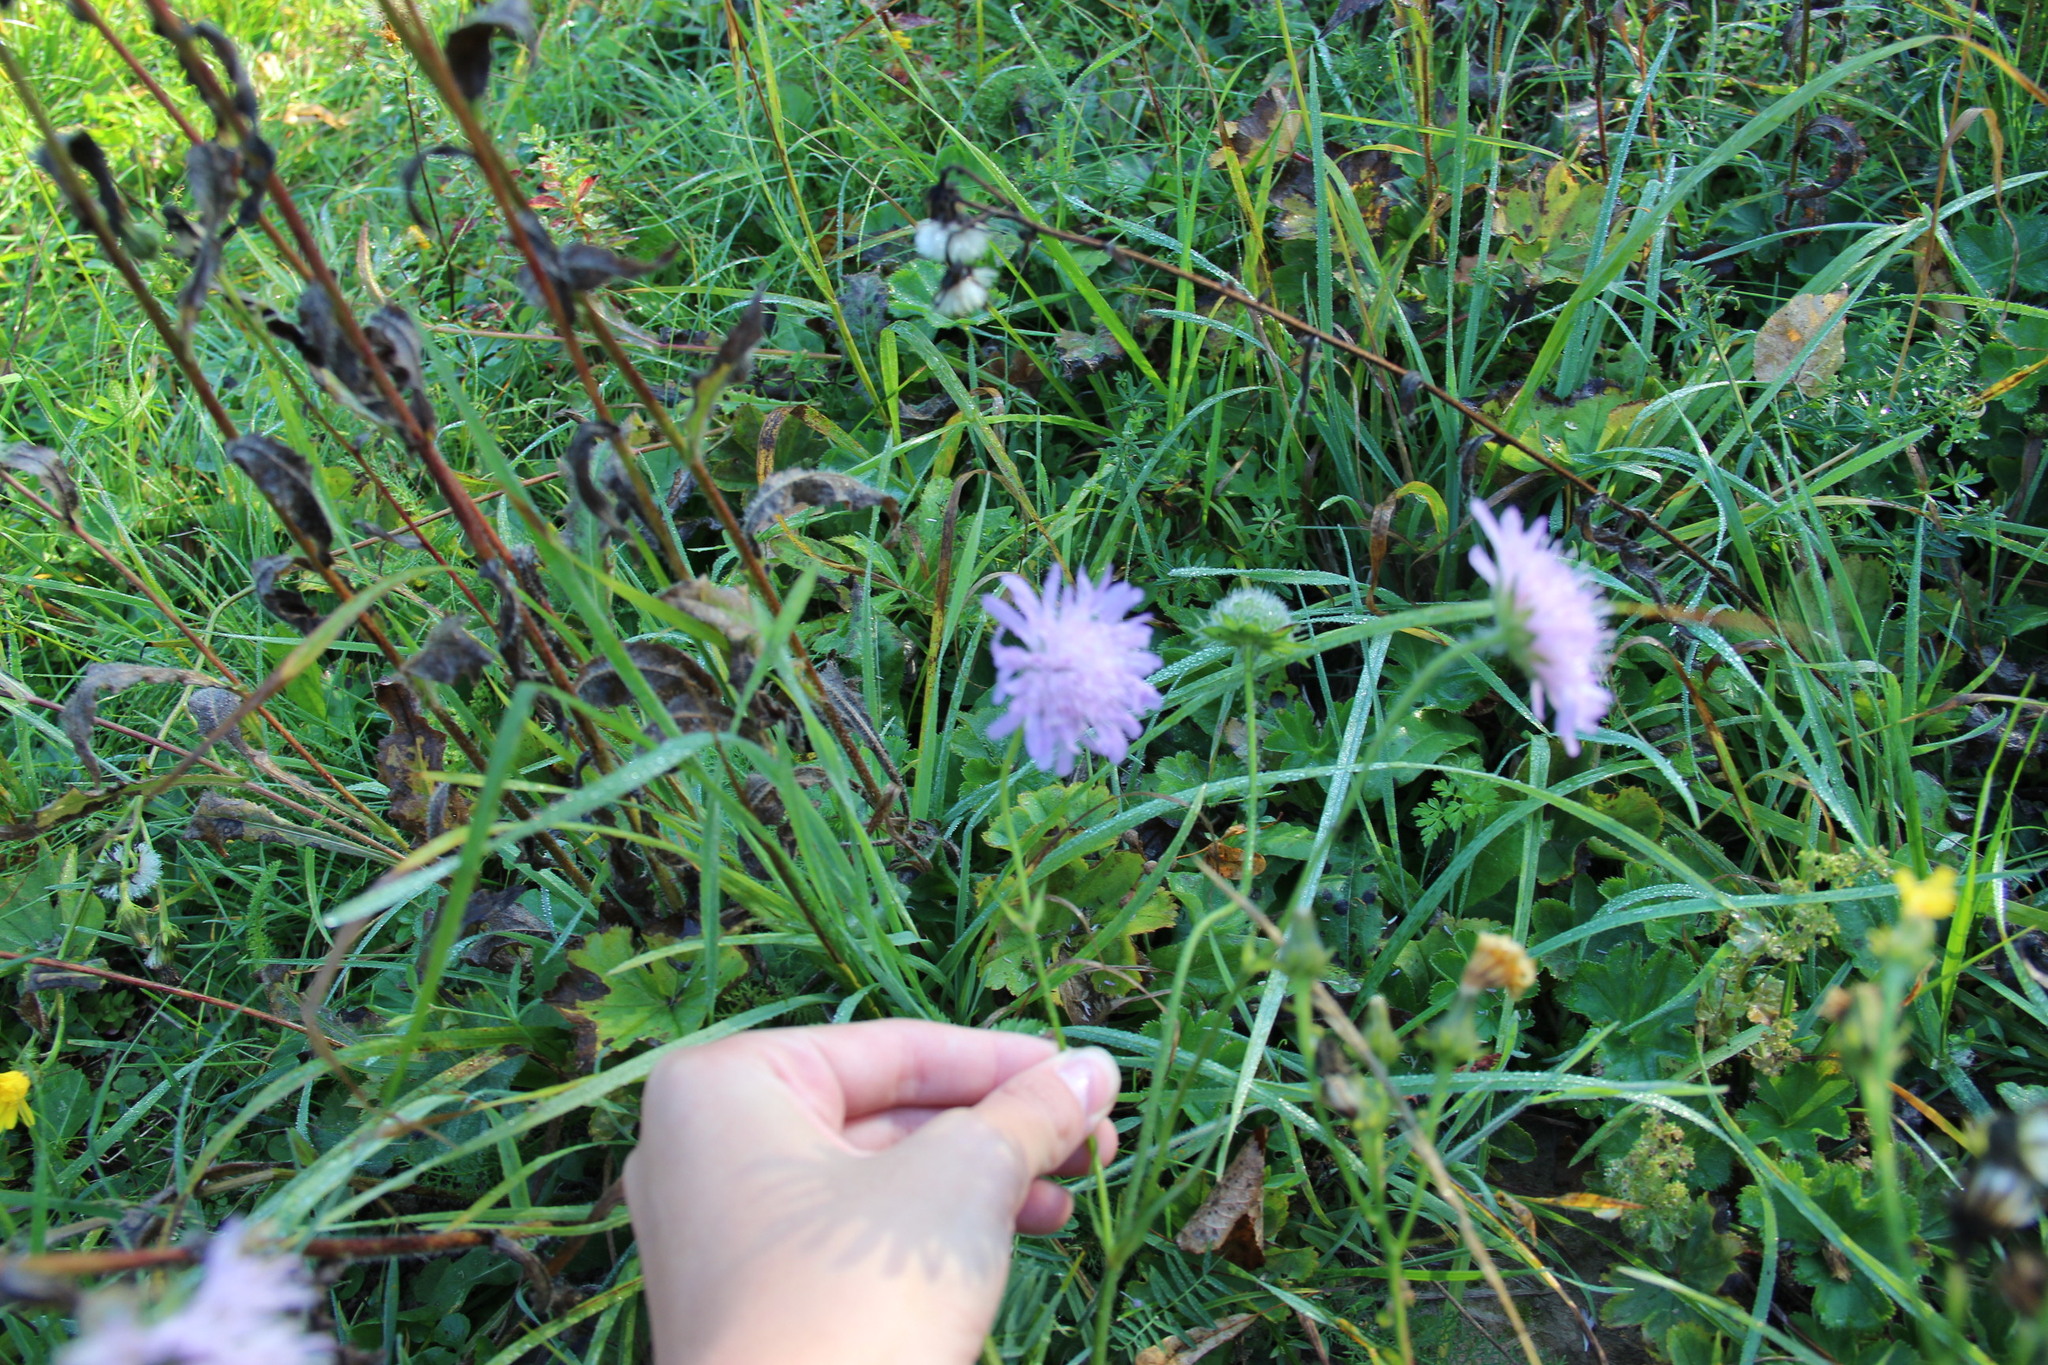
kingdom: Plantae
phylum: Tracheophyta
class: Magnoliopsida
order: Dipsacales
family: Caprifoliaceae
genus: Knautia
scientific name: Knautia arvensis
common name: Field scabiosa
